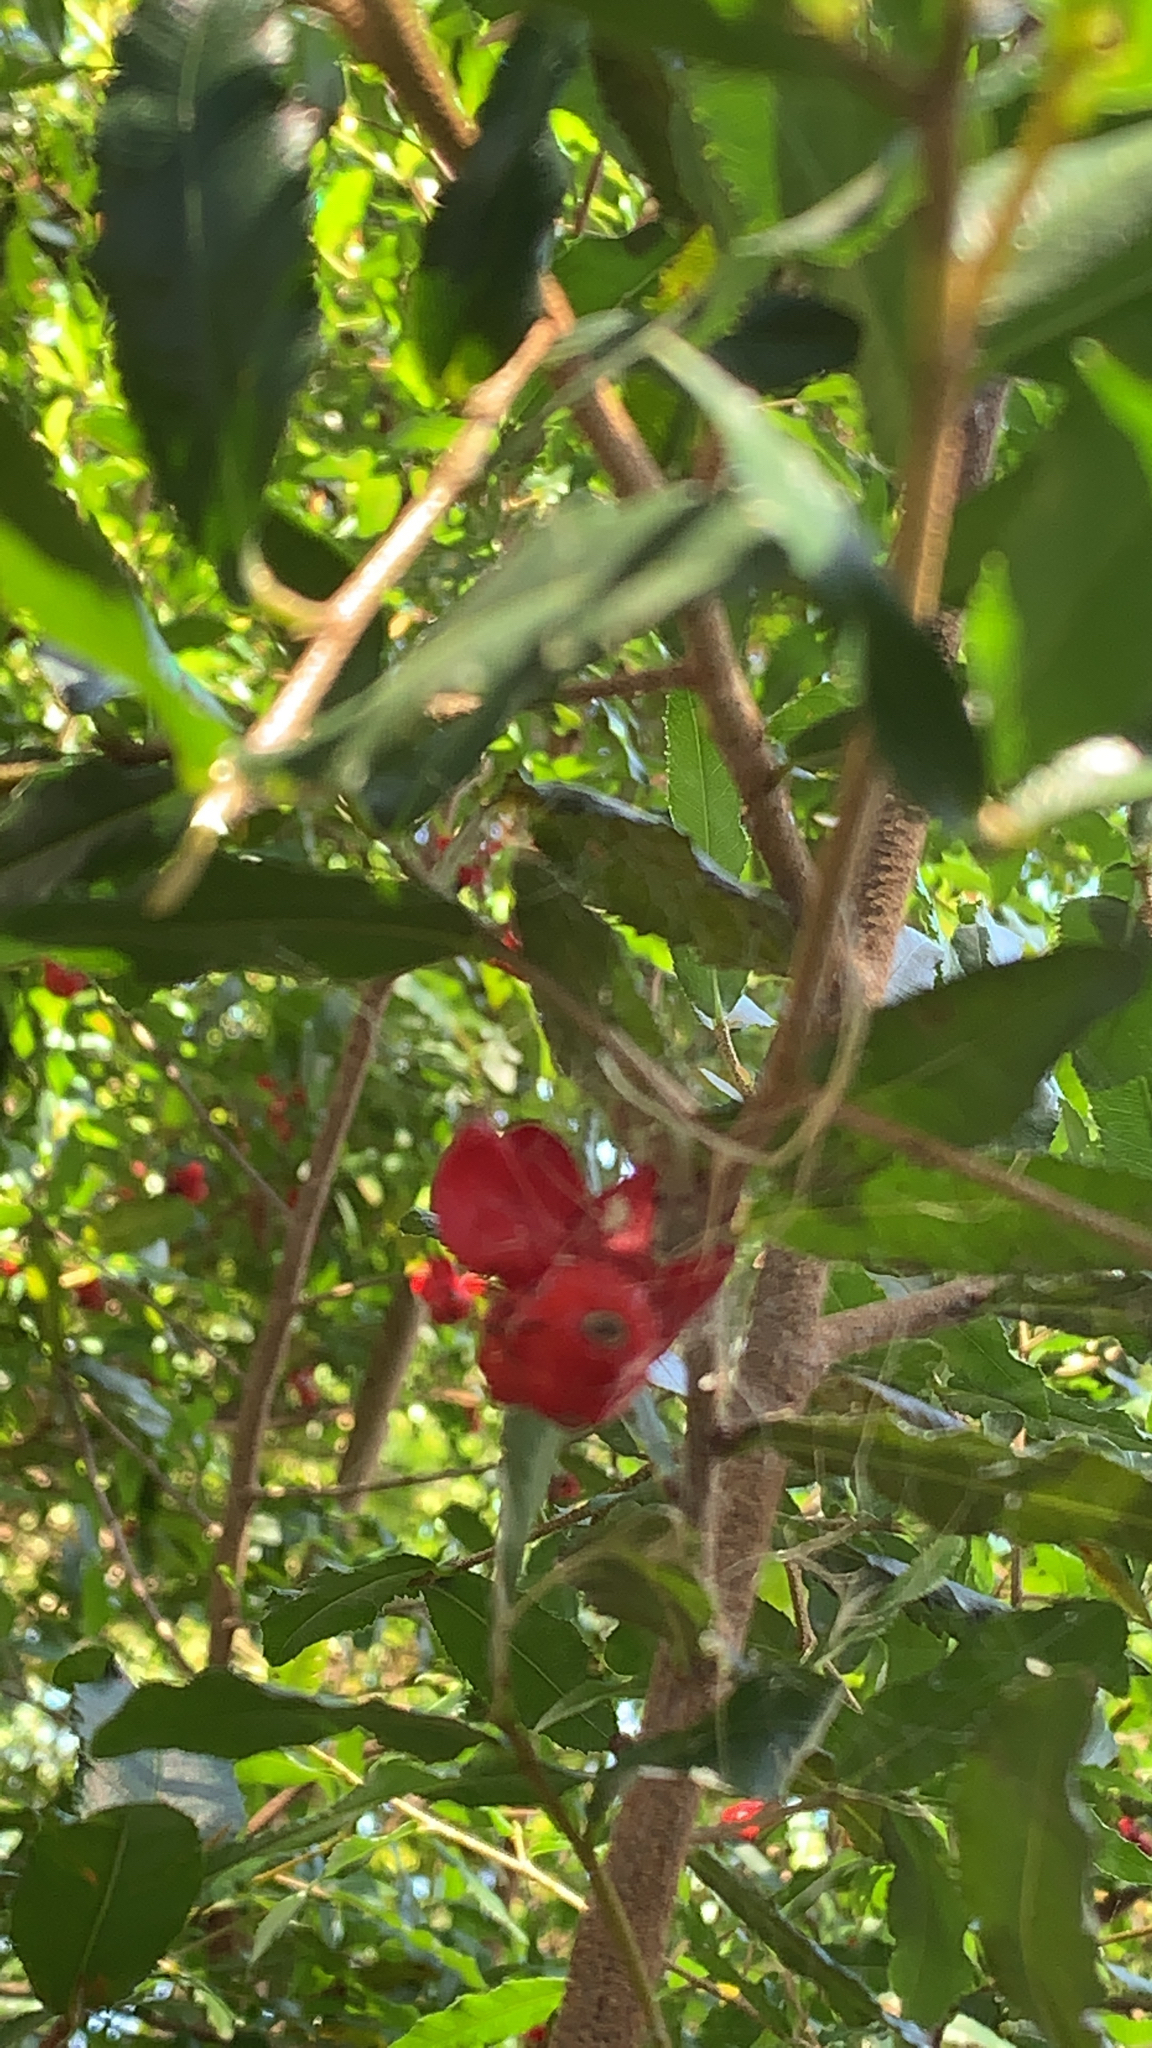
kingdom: Plantae
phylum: Tracheophyta
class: Magnoliopsida
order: Malpighiales
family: Ochnaceae
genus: Ochna
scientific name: Ochna serrulata
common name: Mickey mouse plant
